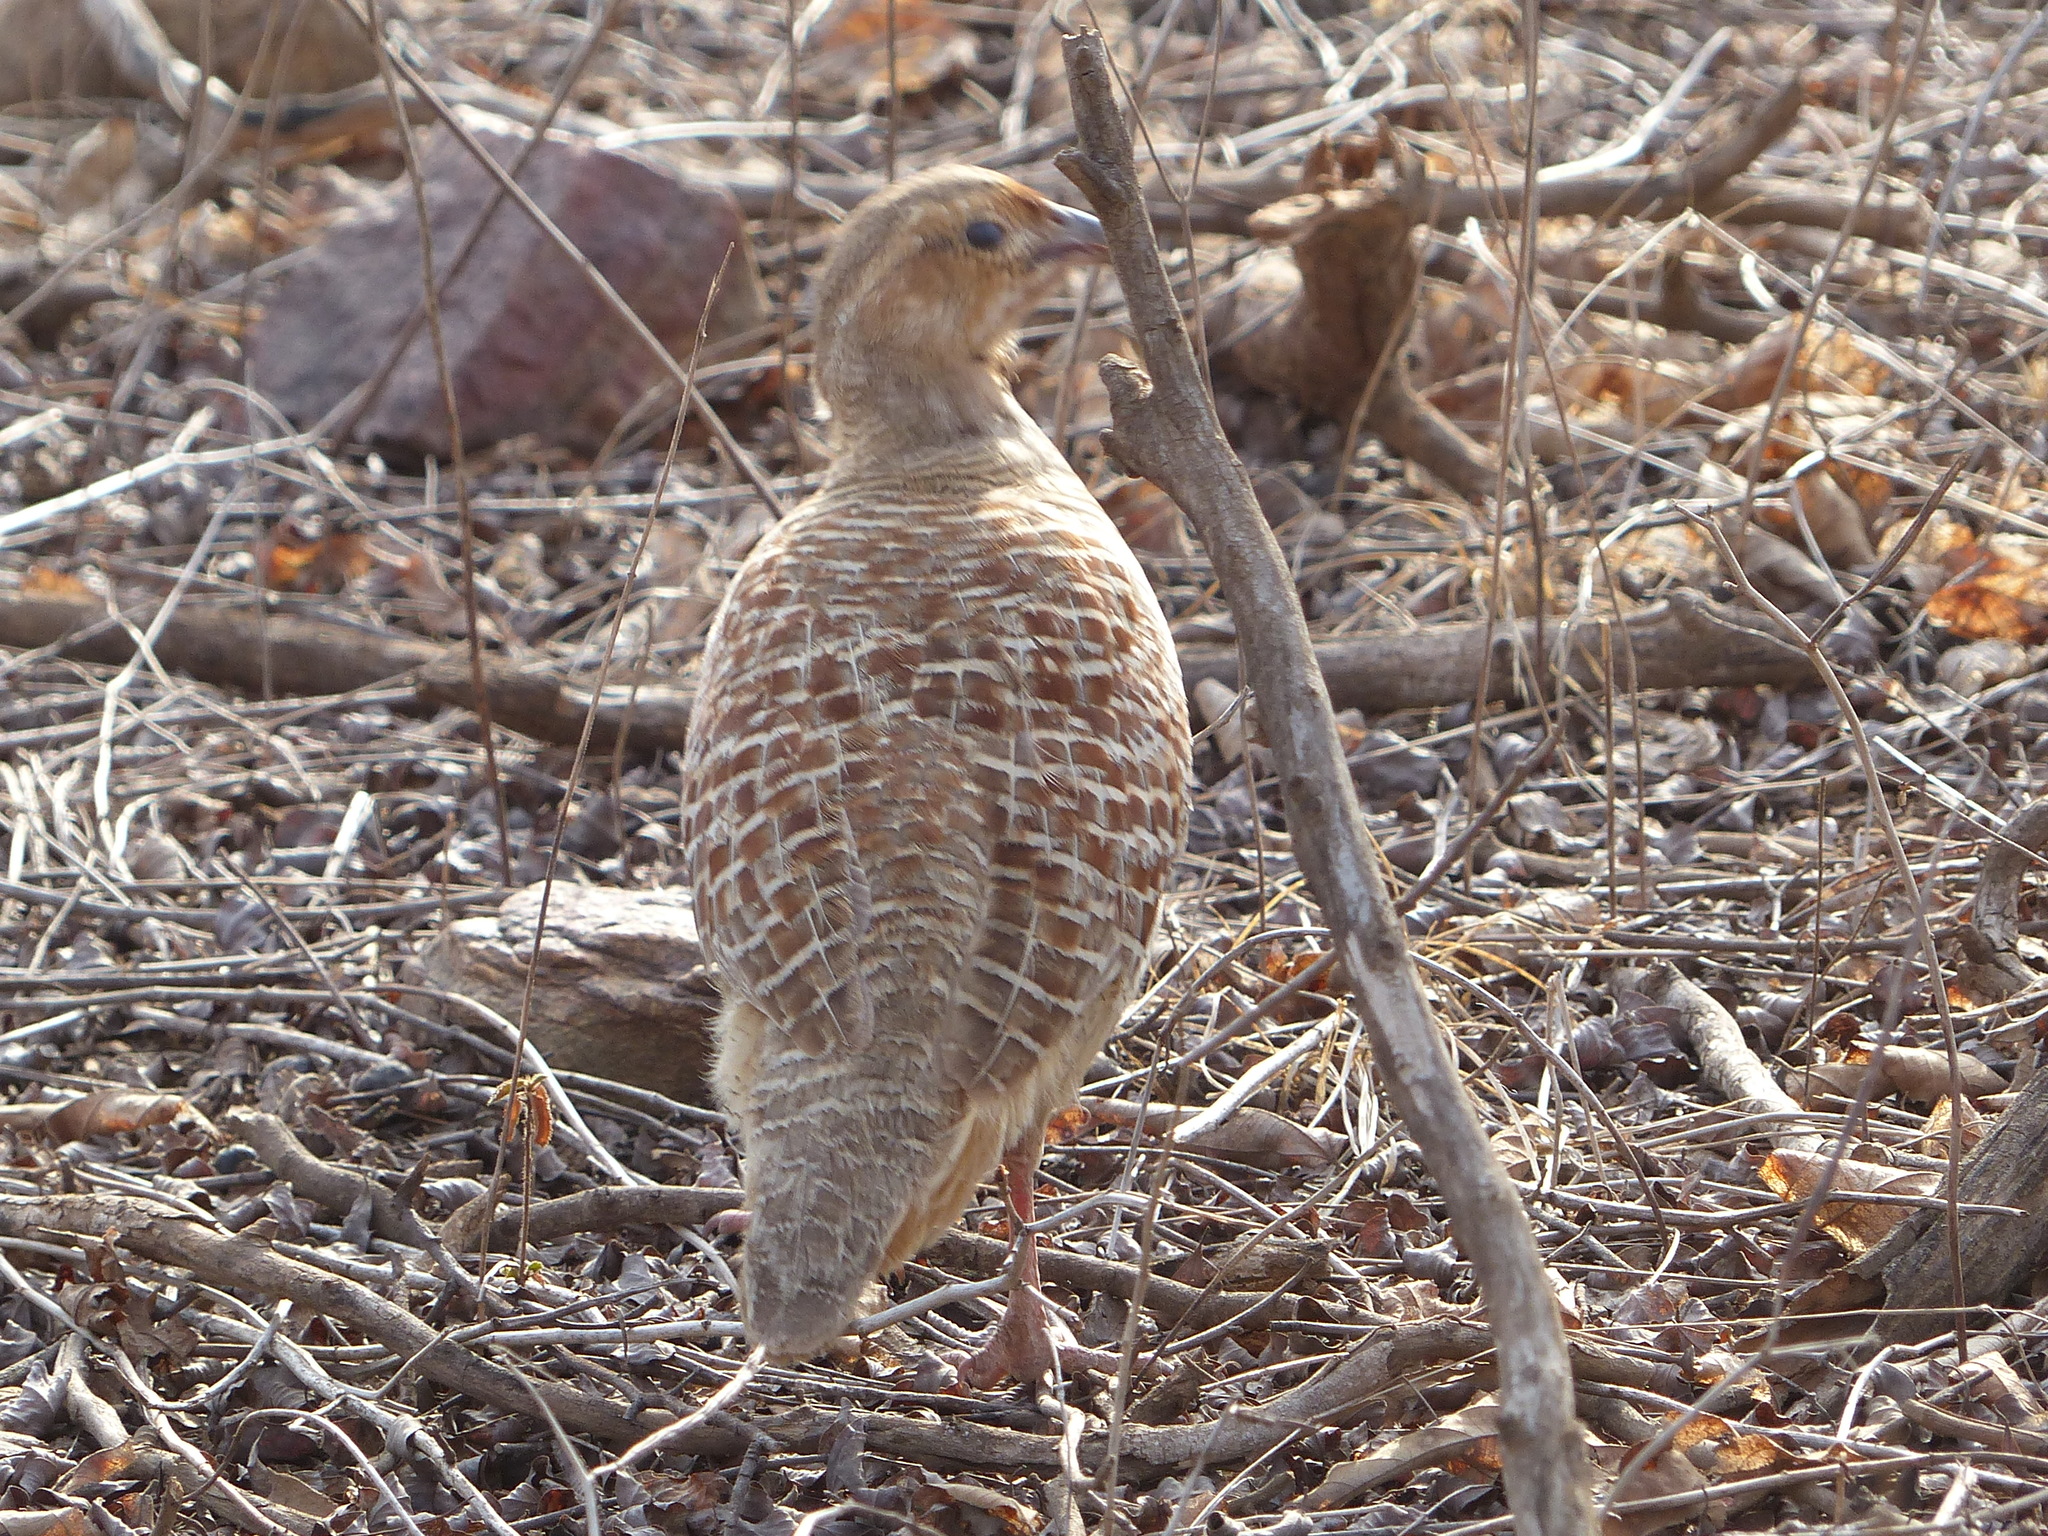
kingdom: Animalia
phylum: Chordata
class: Aves
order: Galliformes
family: Phasianidae
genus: Ortygornis
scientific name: Ortygornis pondicerianus
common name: Grey francolin
